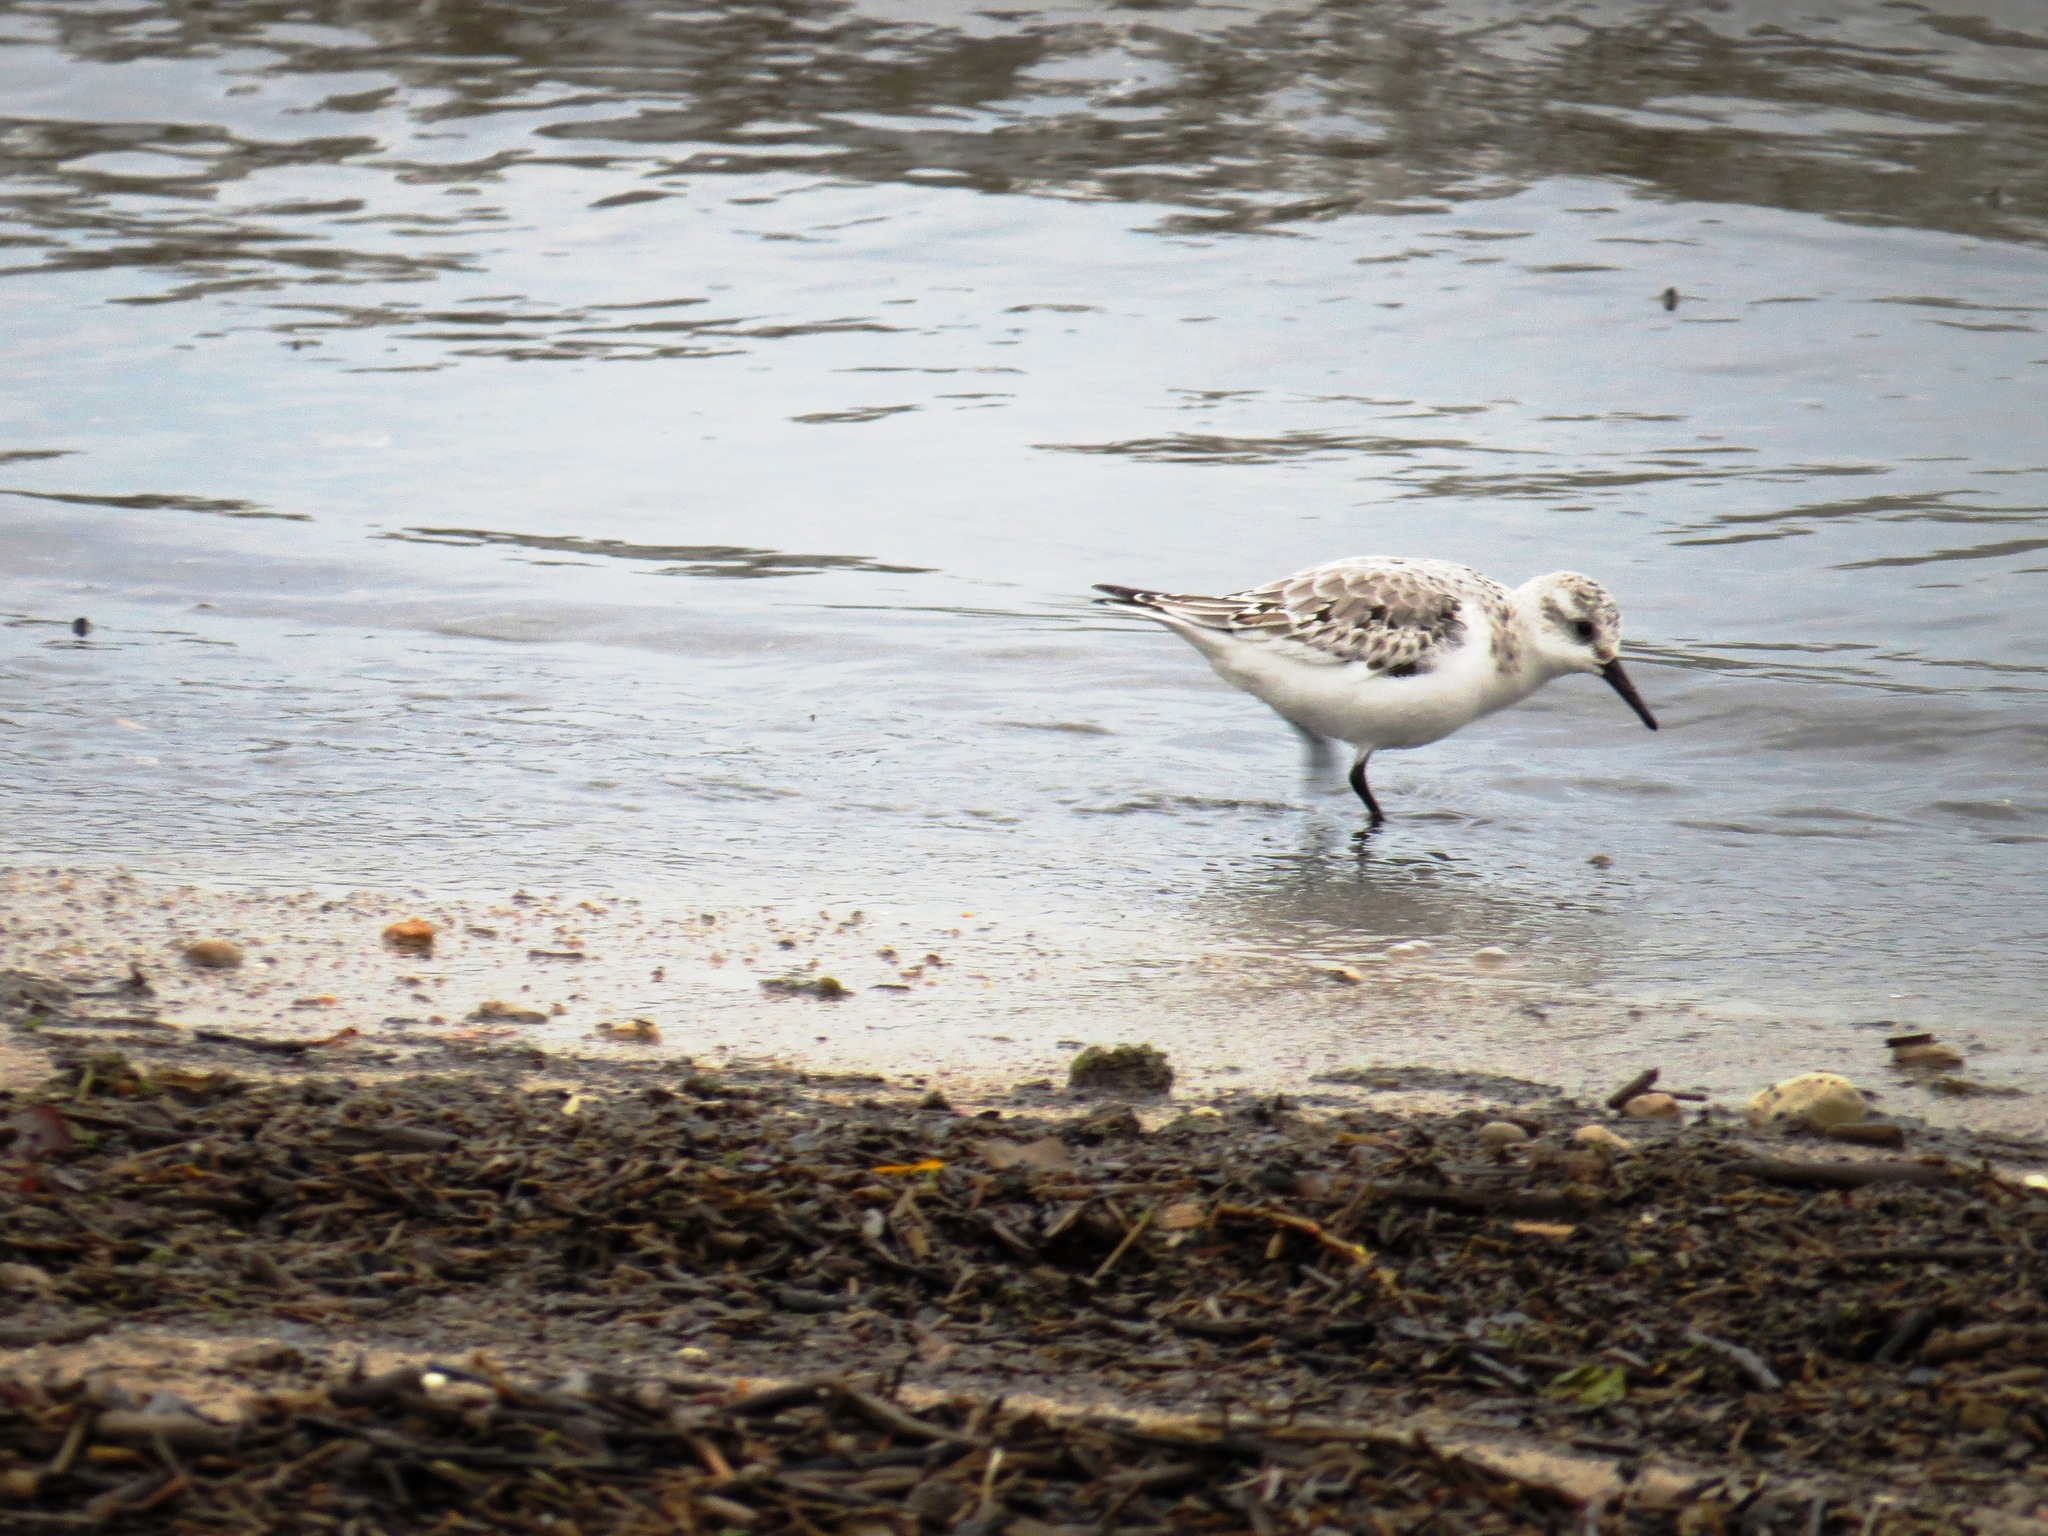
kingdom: Animalia
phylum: Chordata
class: Aves
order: Charadriiformes
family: Scolopacidae
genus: Calidris
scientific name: Calidris alba
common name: Sanderling
